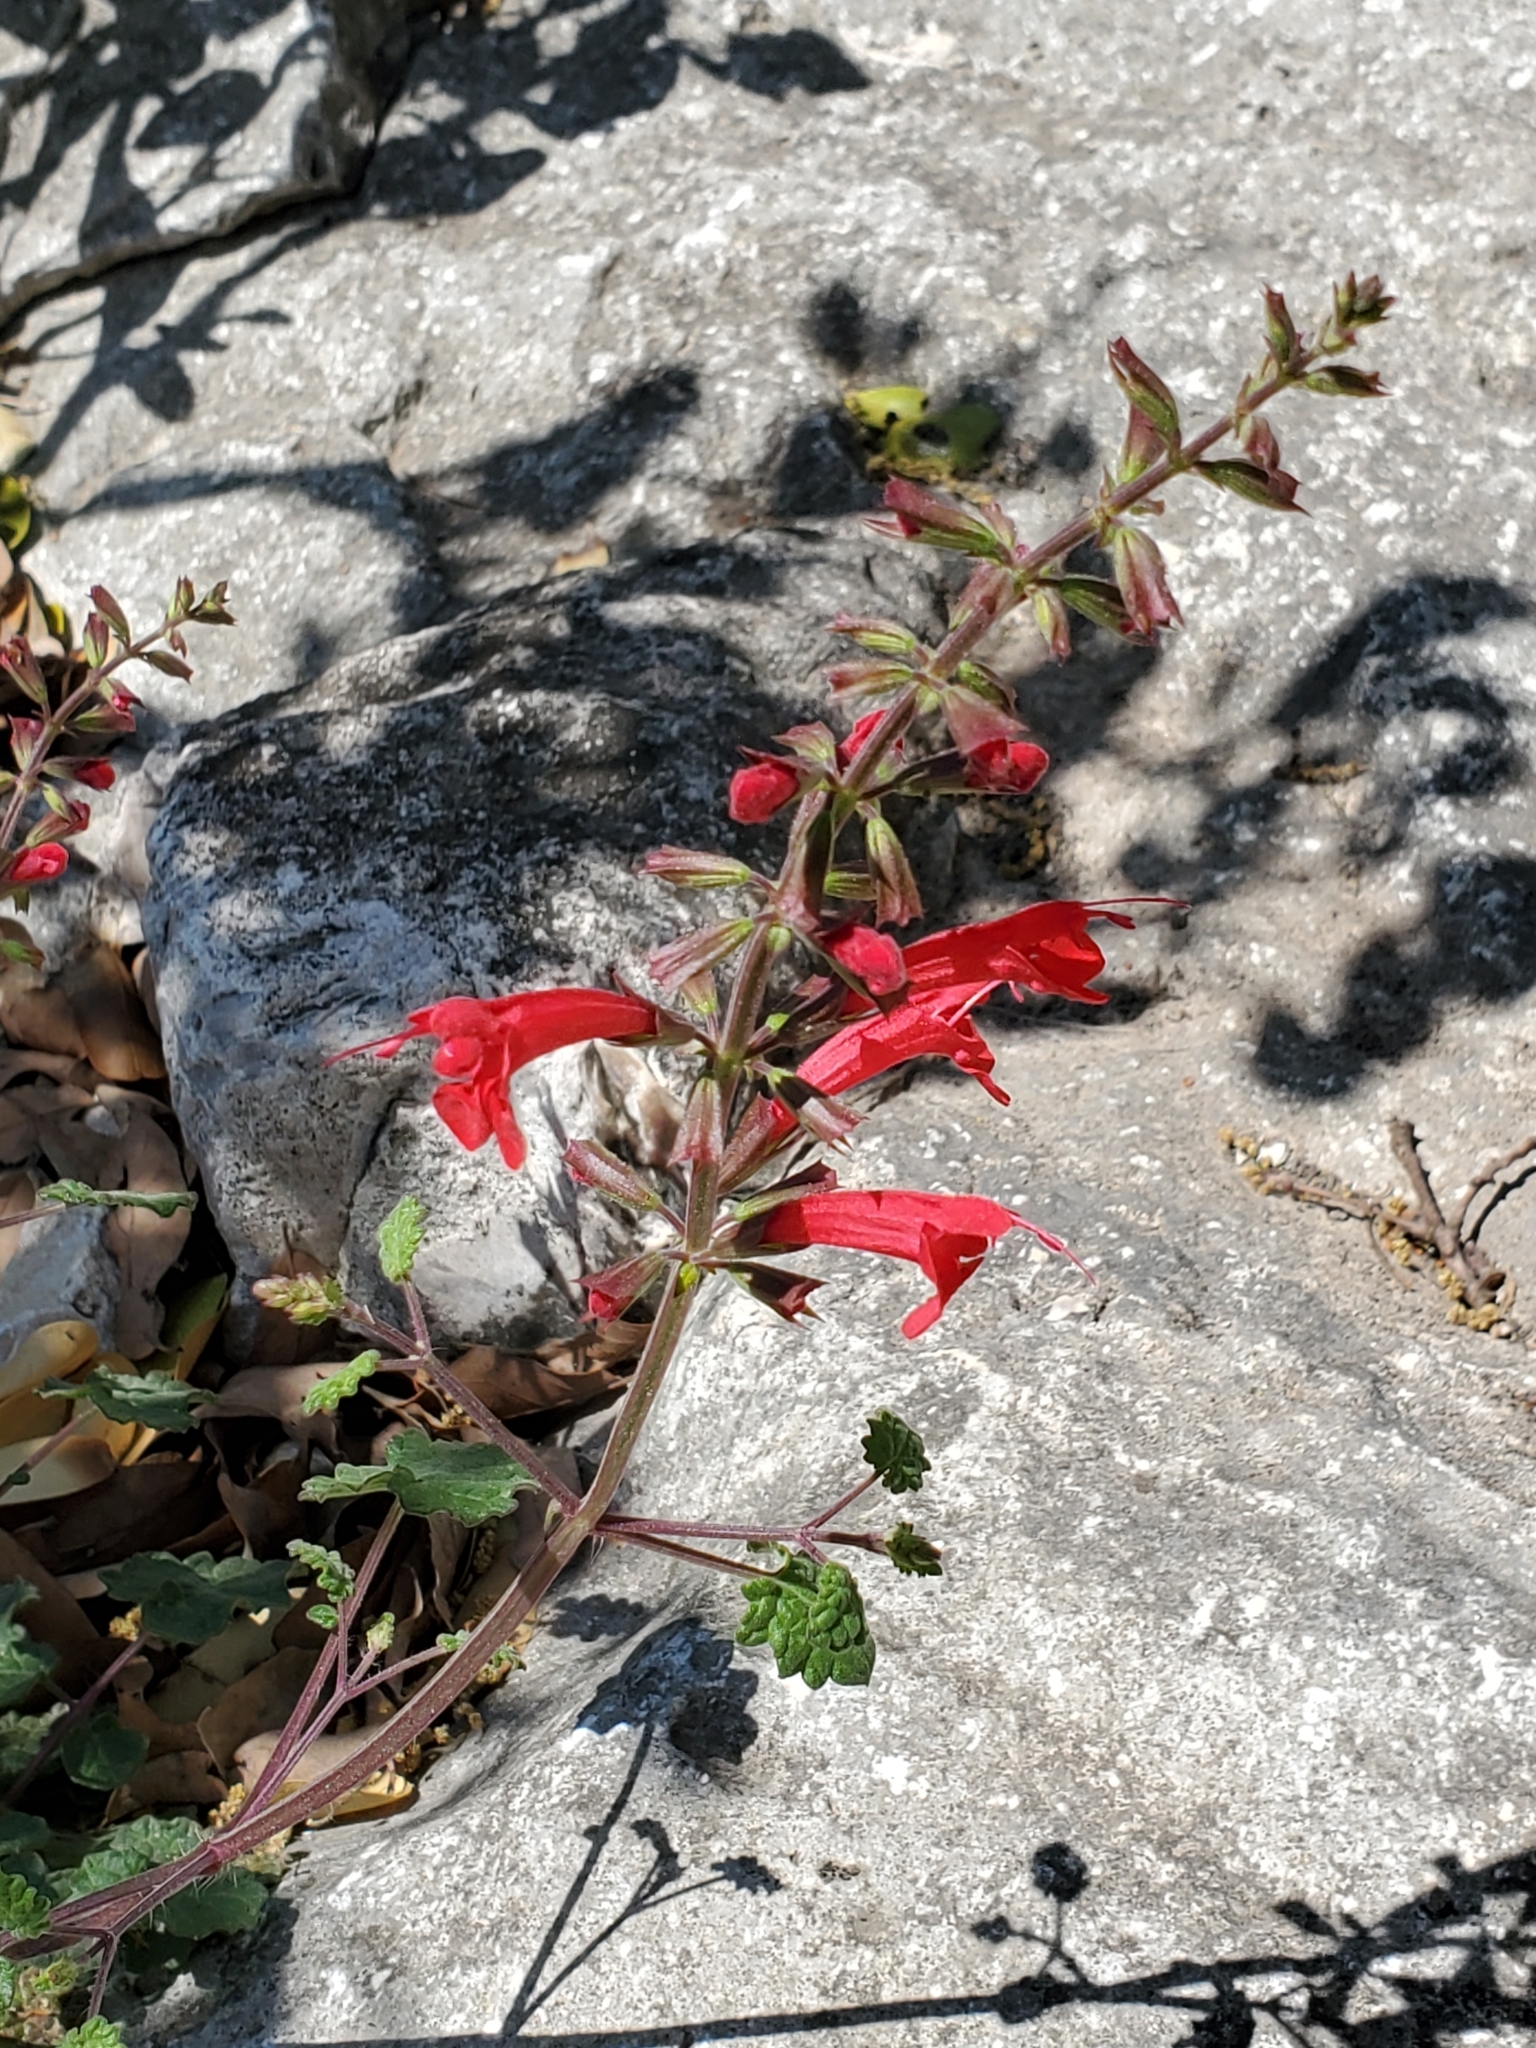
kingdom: Plantae
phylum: Tracheophyta
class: Magnoliopsida
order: Lamiales
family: Lamiaceae
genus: Salvia
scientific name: Salvia roemeriana
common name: Cedar sage
